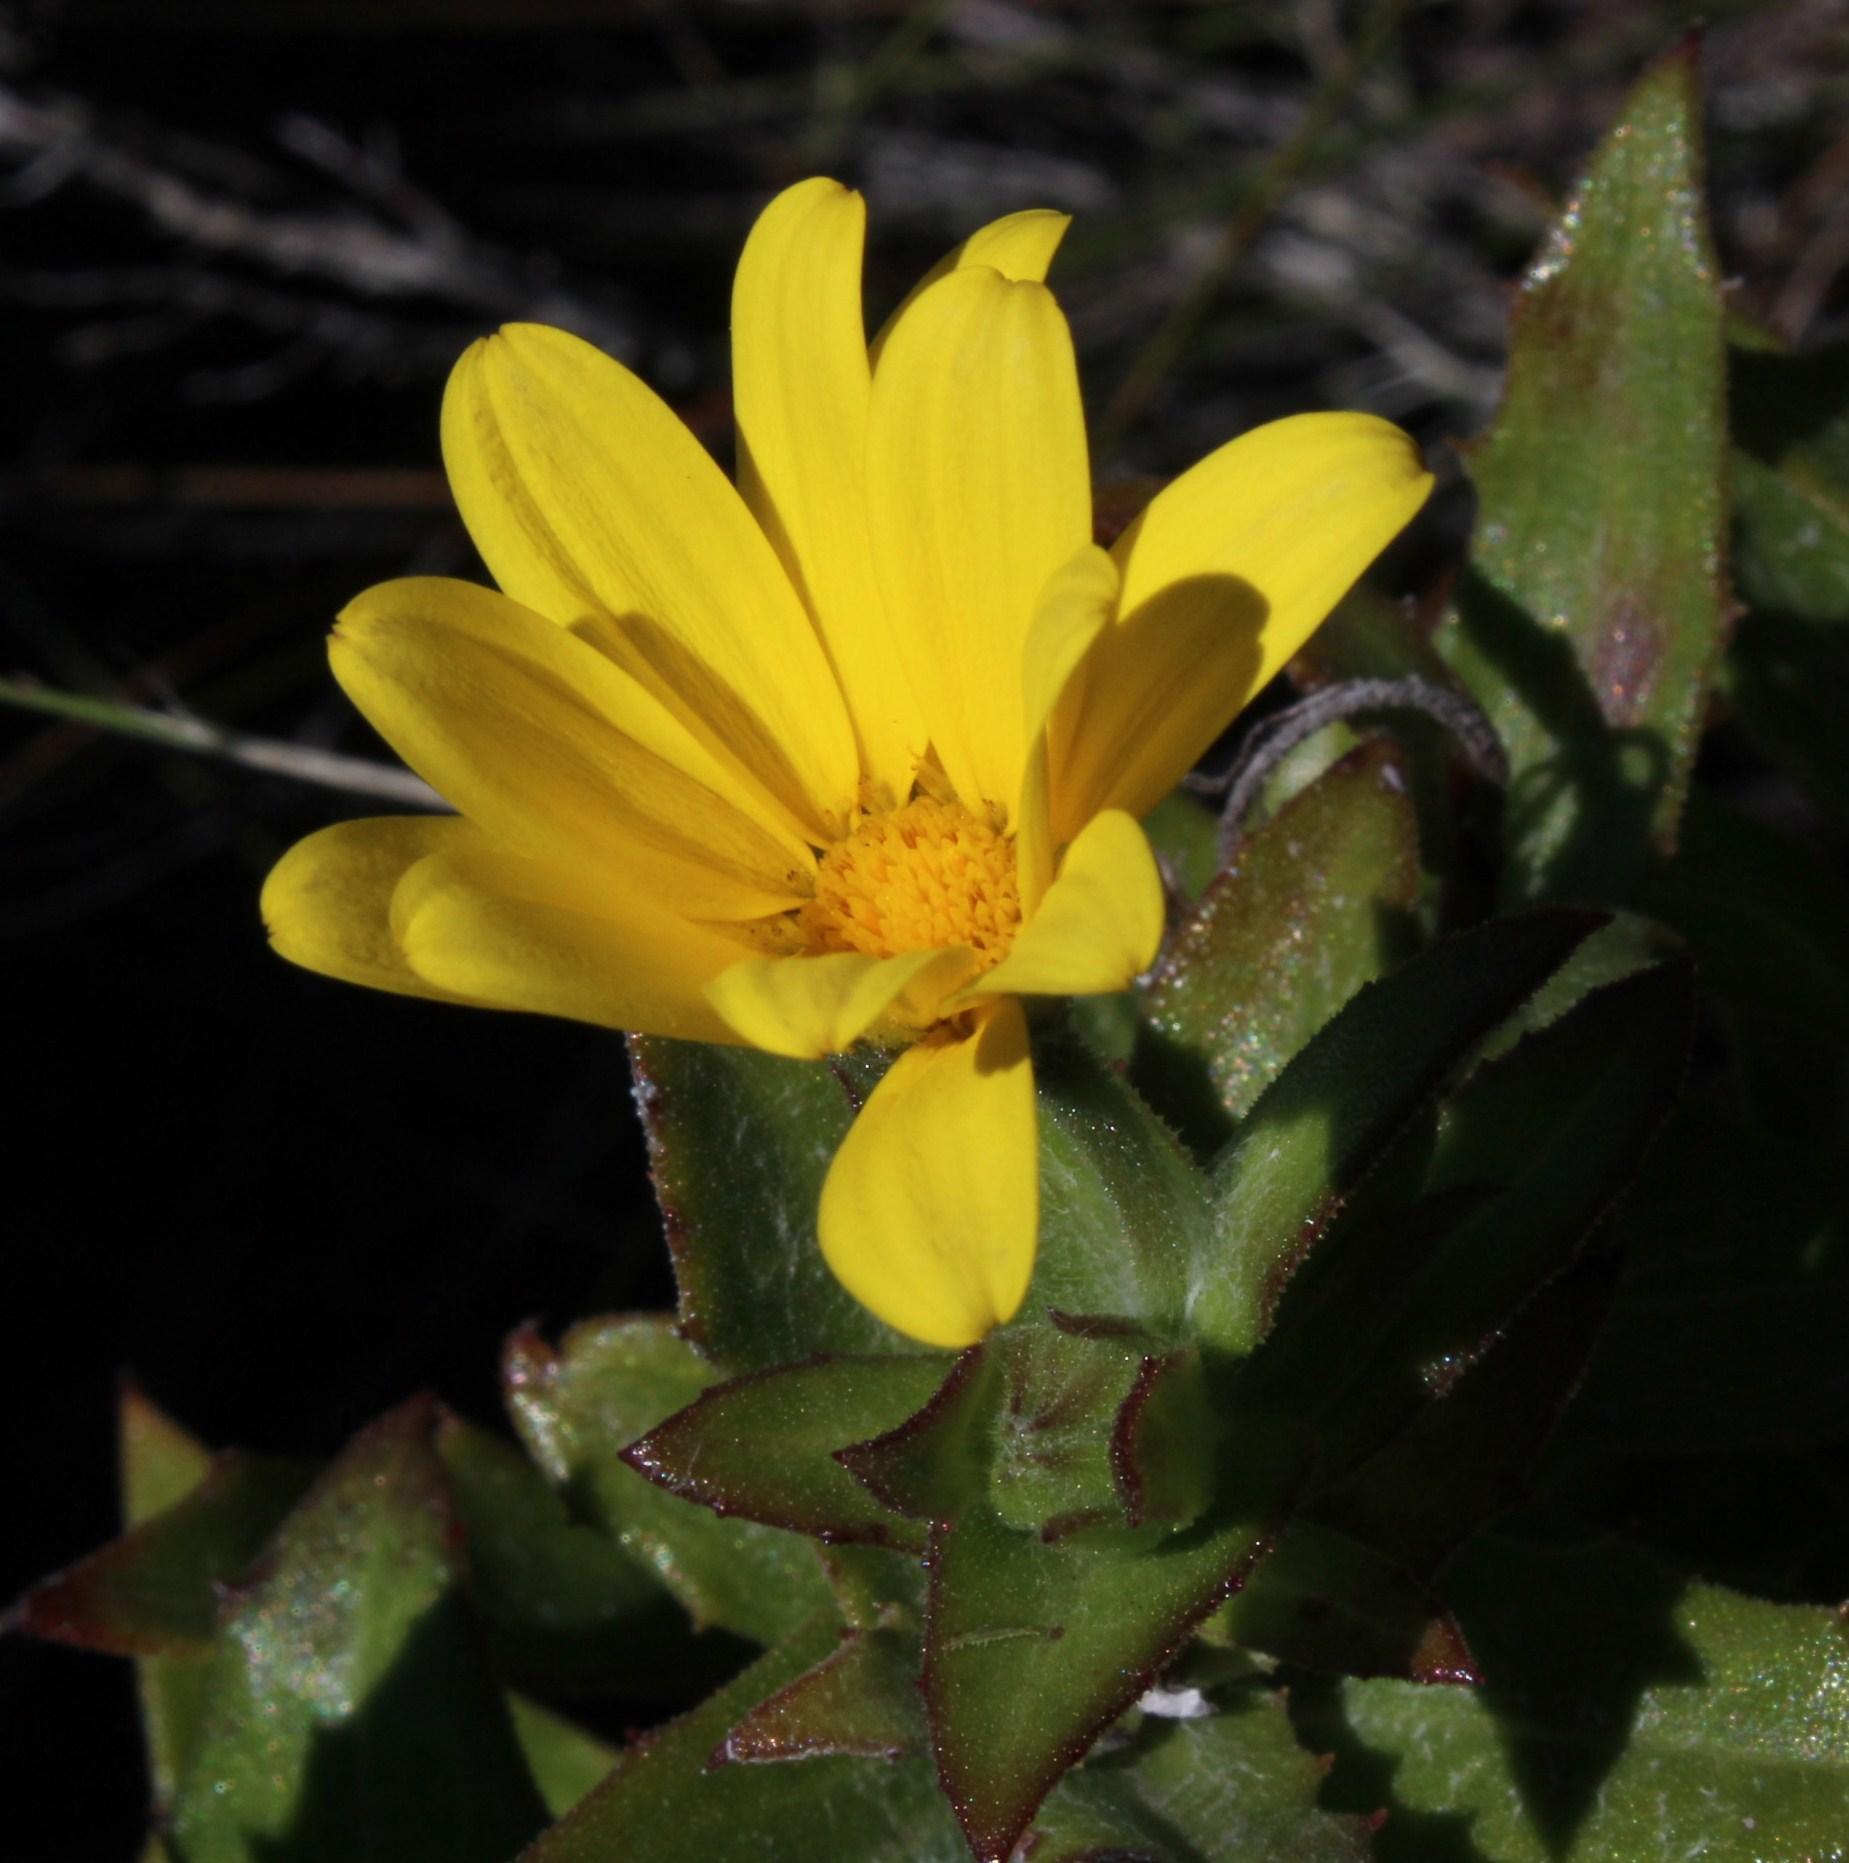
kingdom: Plantae
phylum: Tracheophyta
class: Magnoliopsida
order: Asterales
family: Asteraceae
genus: Osteospermum
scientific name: Osteospermum ilicifolium
